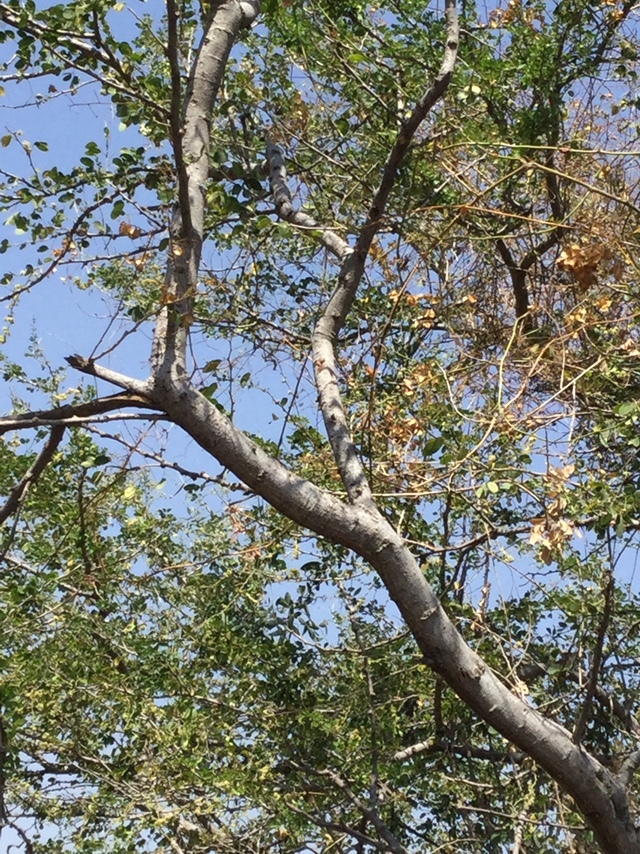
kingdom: Plantae
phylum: Tracheophyta
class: Magnoliopsida
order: Fabales
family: Fabaceae
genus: Pithecellobium
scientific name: Pithecellobium dulce
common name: Monkeypod
